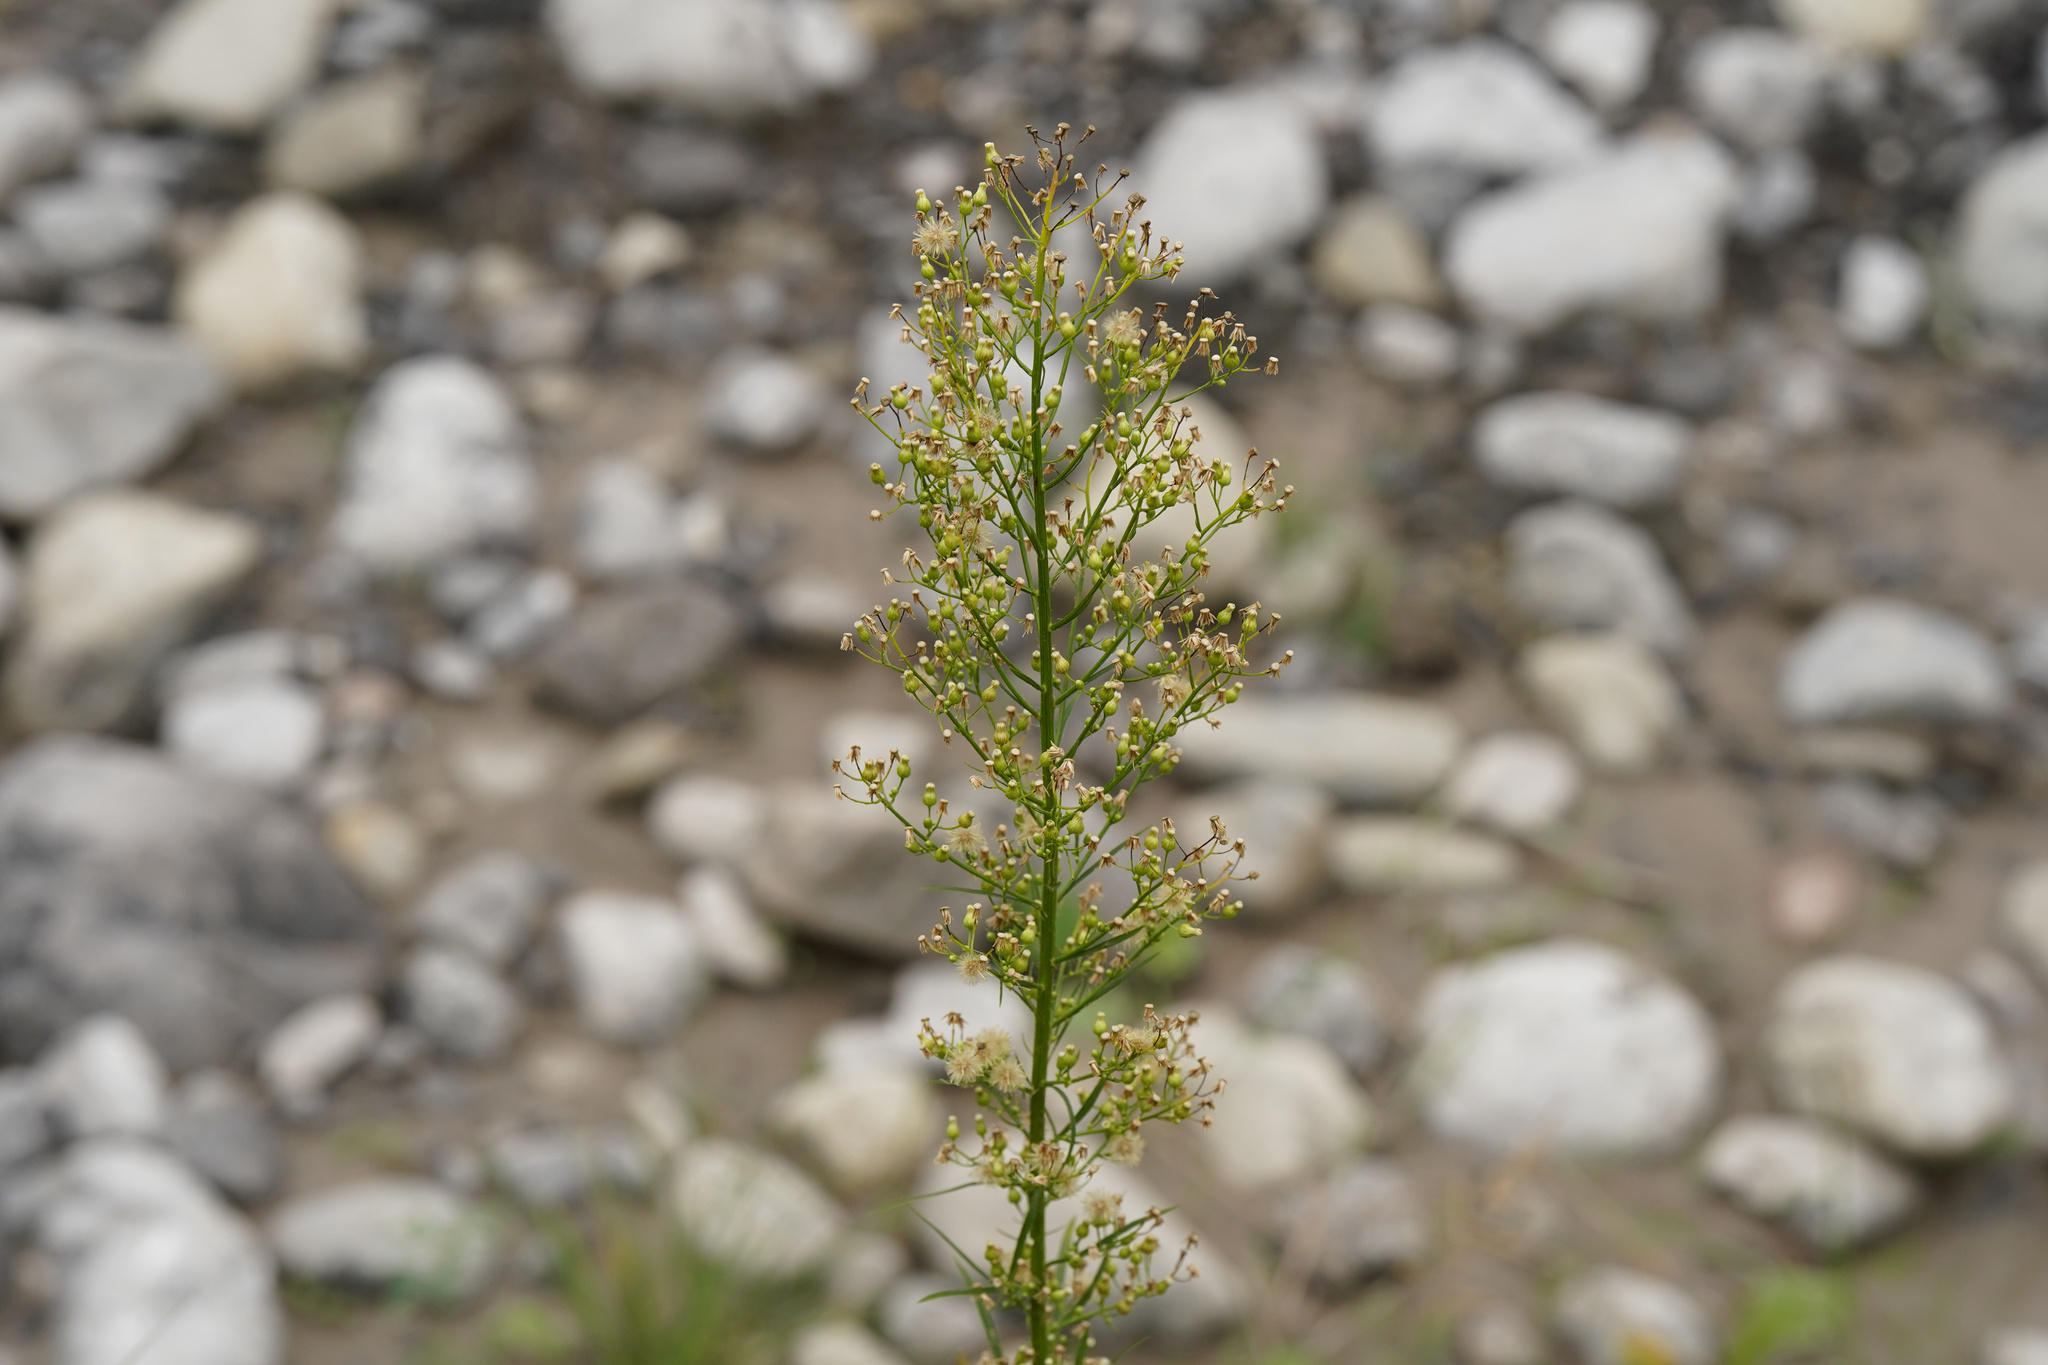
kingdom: Plantae
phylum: Tracheophyta
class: Magnoliopsida
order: Asterales
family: Asteraceae
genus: Erigeron
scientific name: Erigeron canadensis
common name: Canadian fleabane
